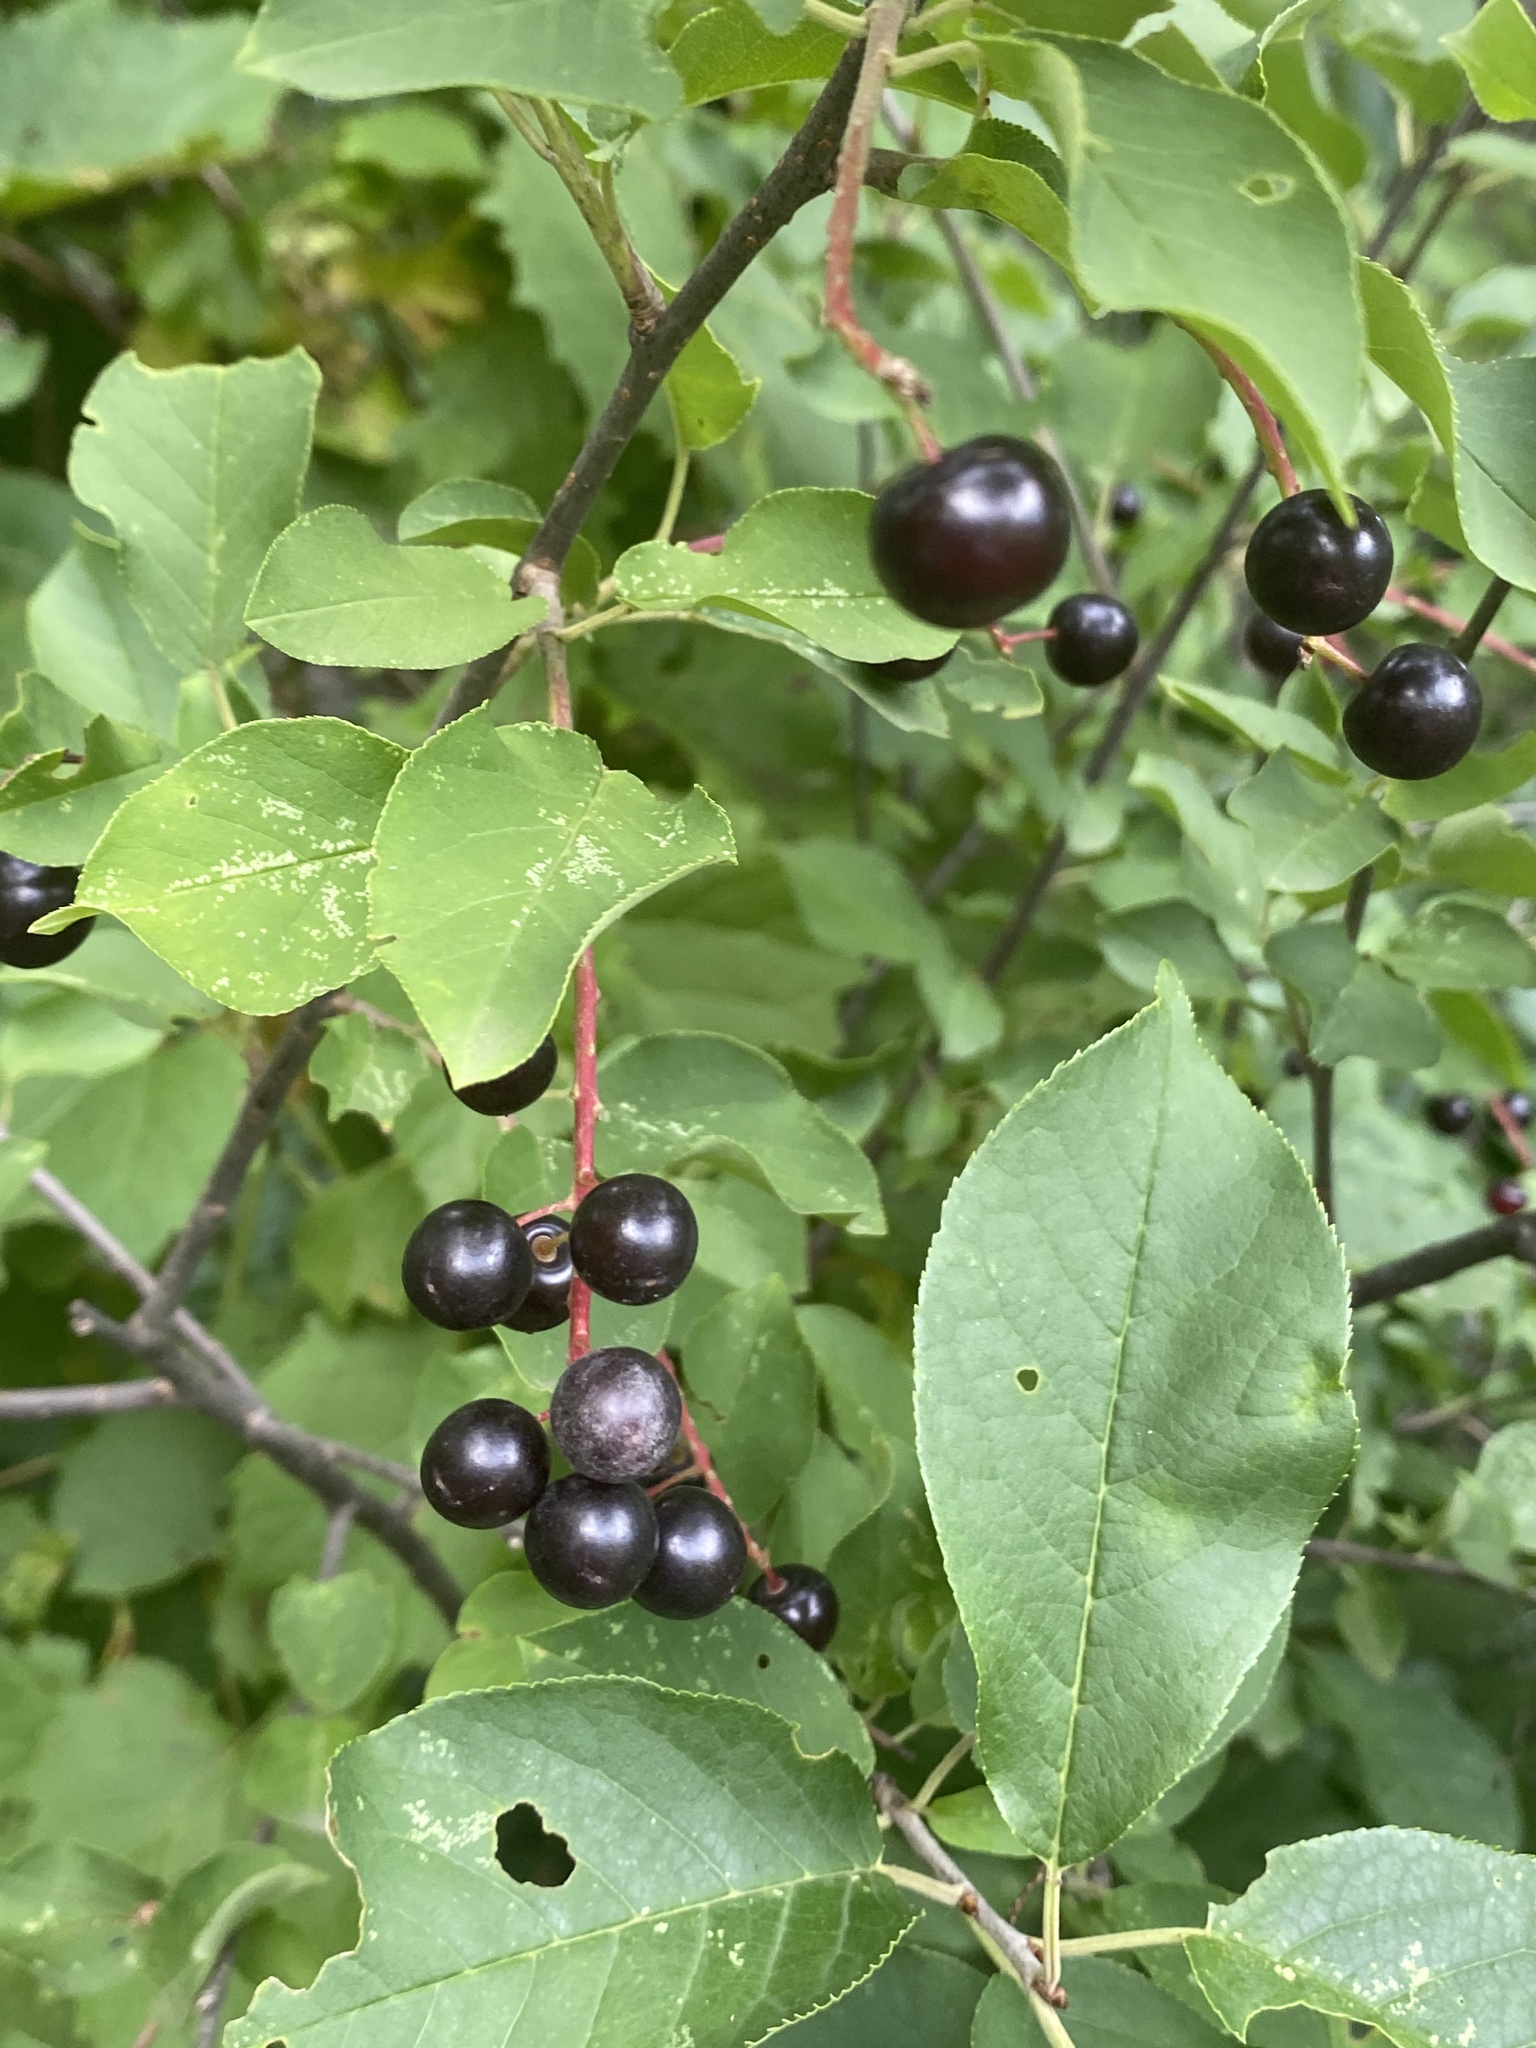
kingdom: Plantae
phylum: Tracheophyta
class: Magnoliopsida
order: Rosales
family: Rosaceae
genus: Prunus
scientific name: Prunus virginiana
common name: Chokecherry
